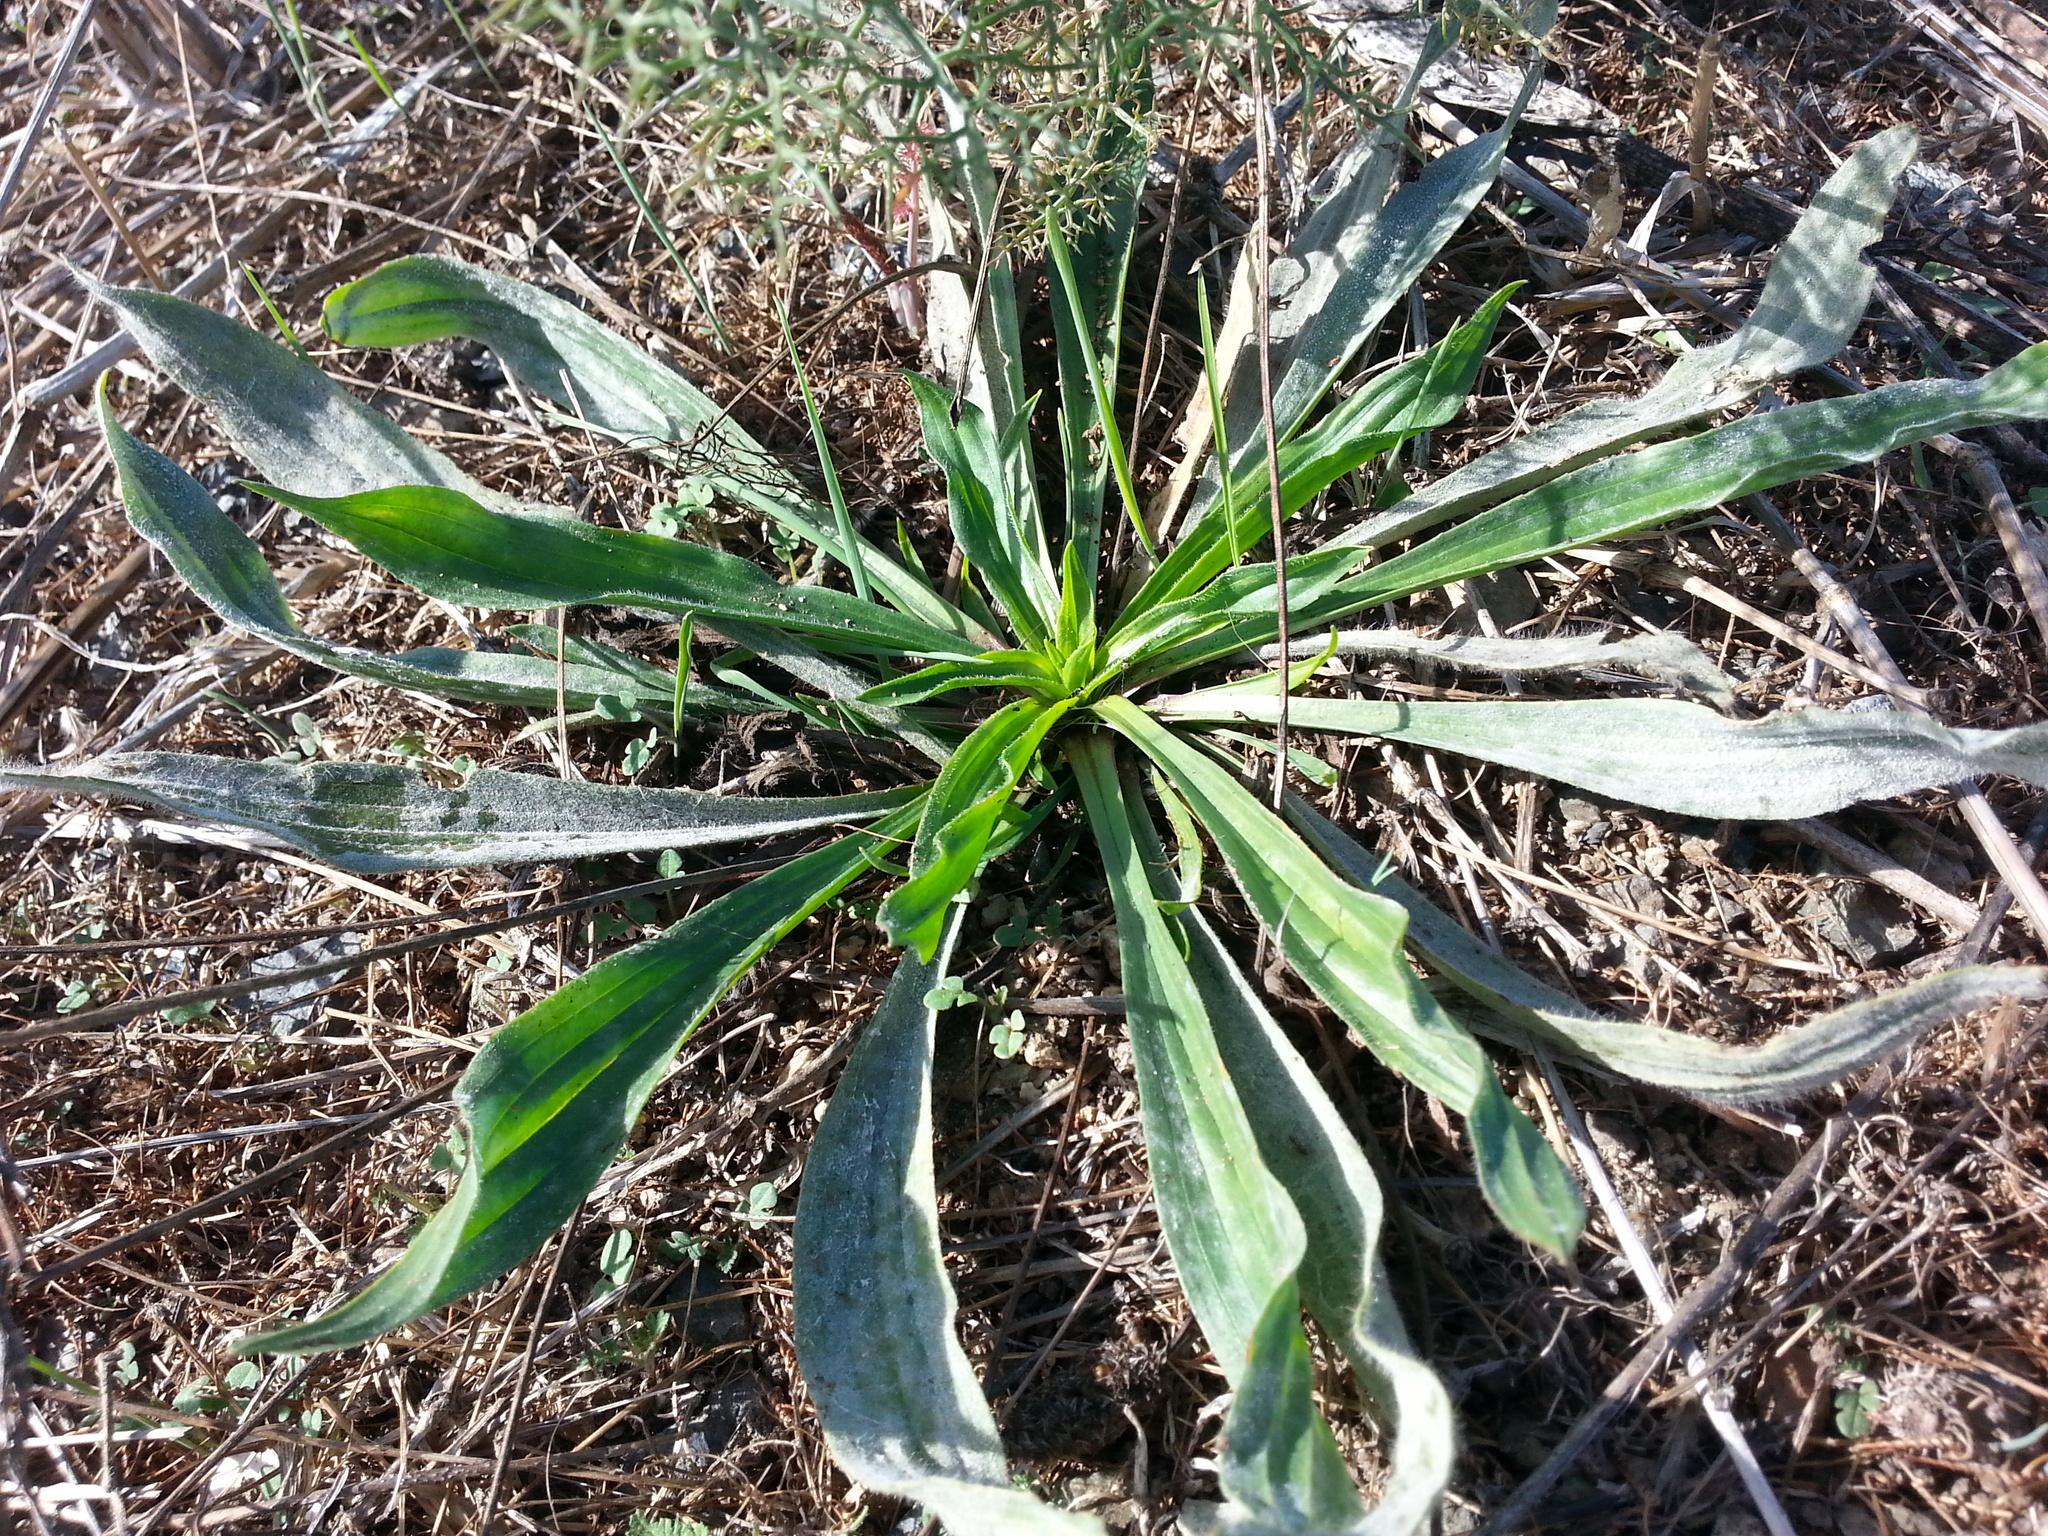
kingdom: Plantae
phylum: Tracheophyta
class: Magnoliopsida
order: Lamiales
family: Plantaginaceae
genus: Plantago
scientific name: Plantago lanceolata
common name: Ribwort plantain
